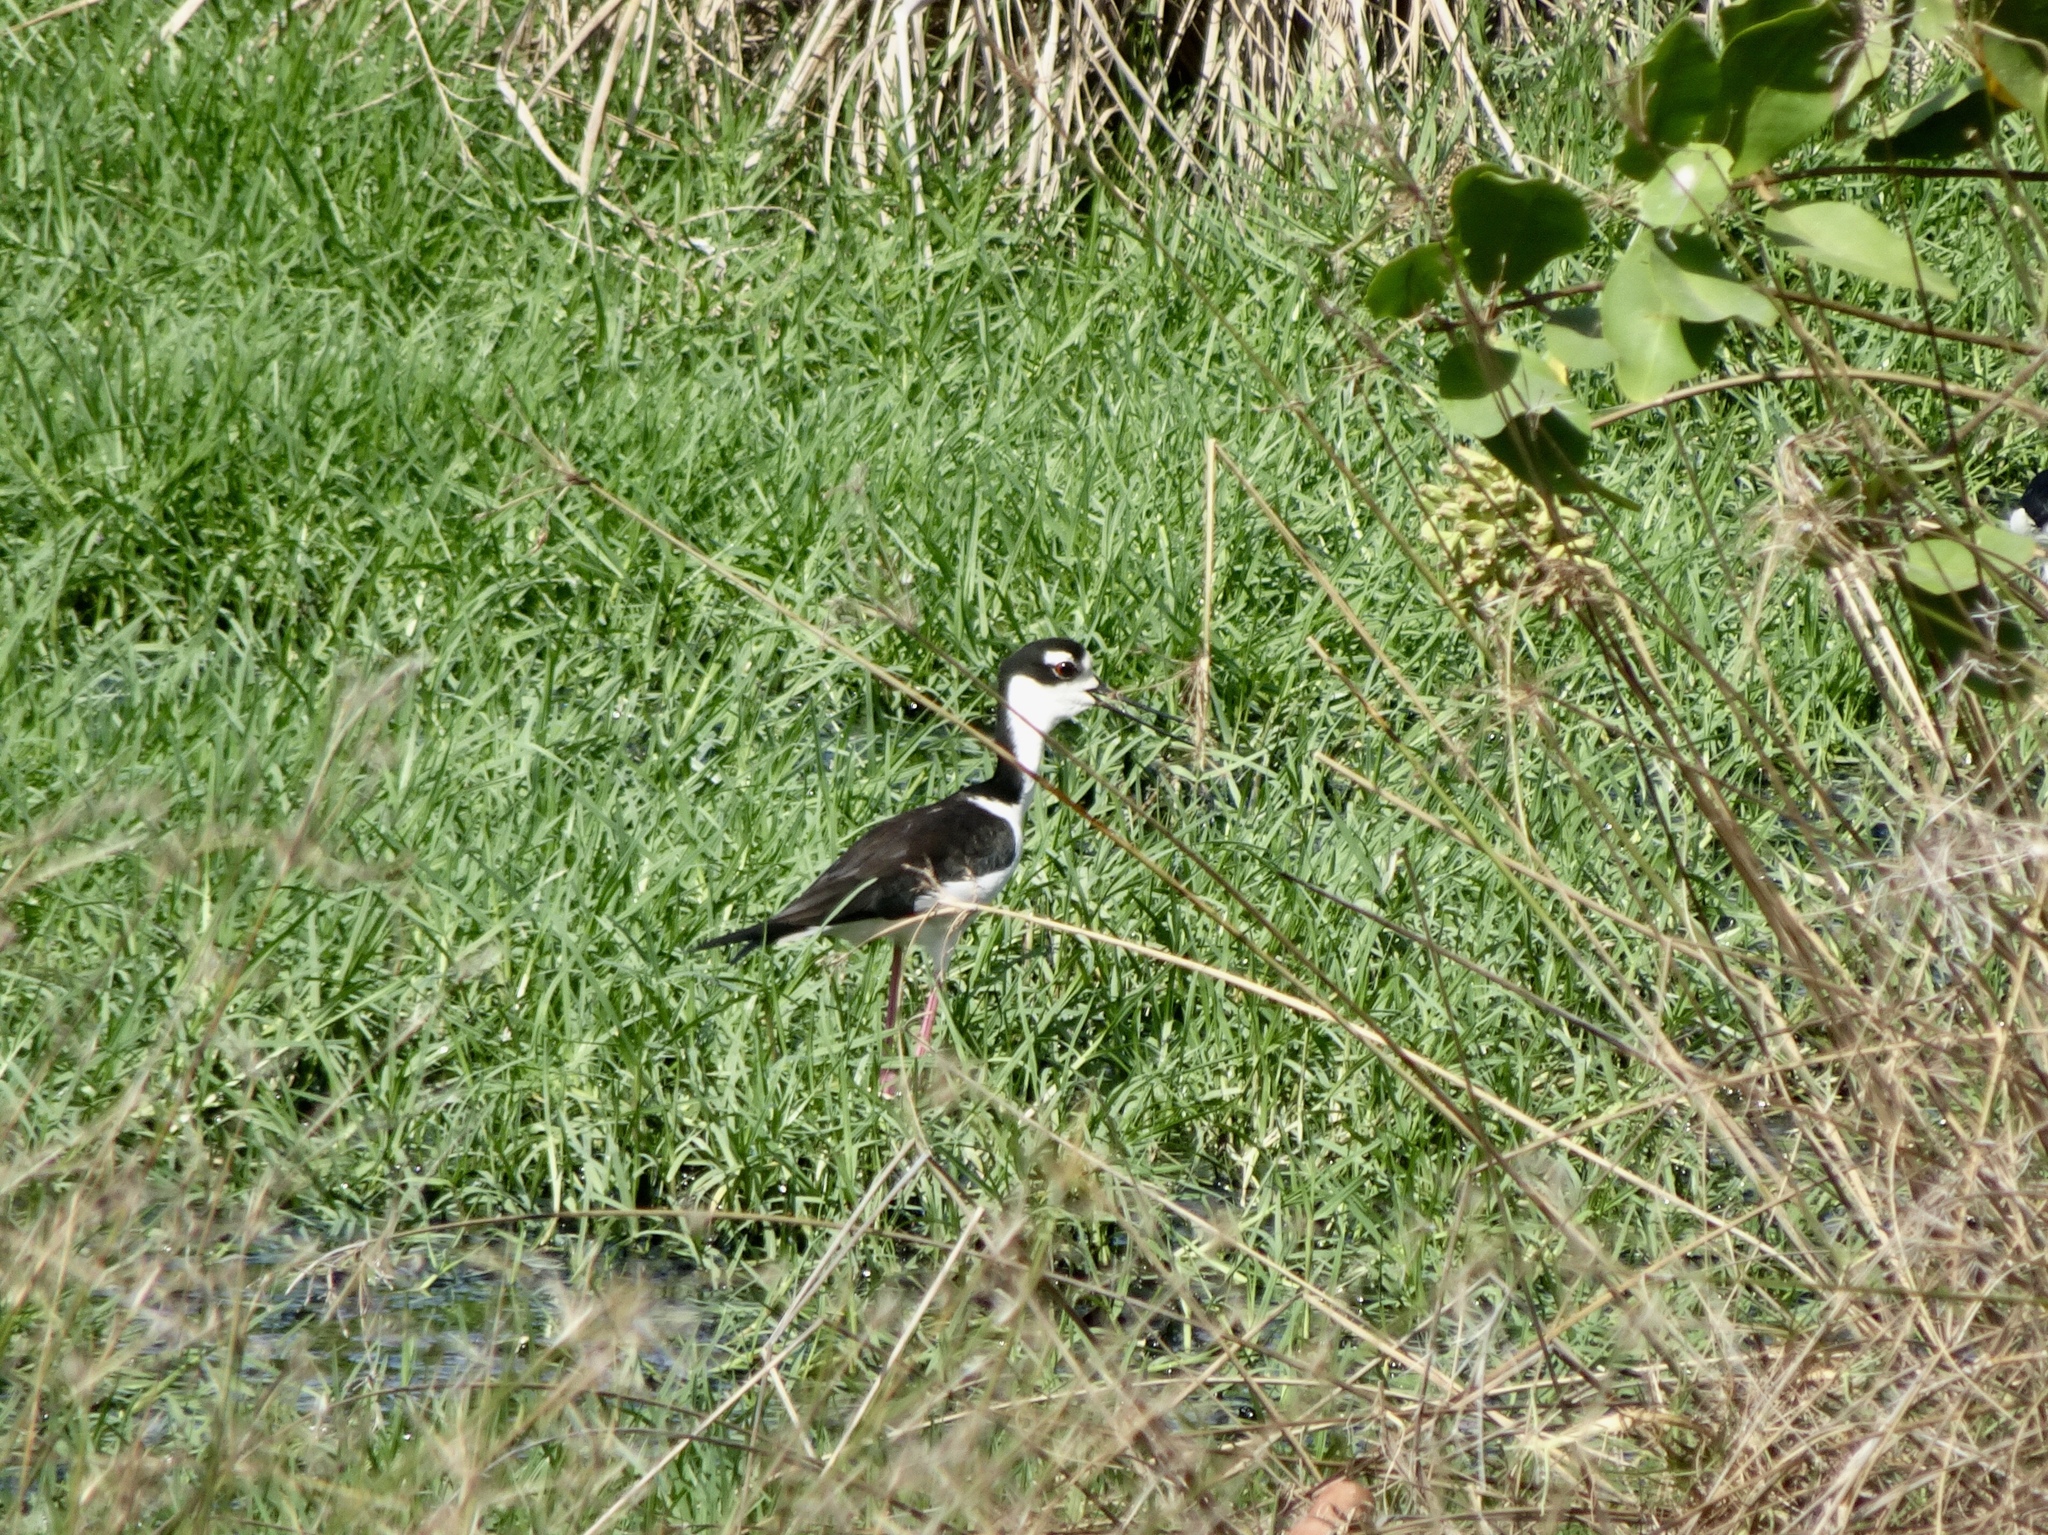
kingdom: Animalia
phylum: Chordata
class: Aves
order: Charadriiformes
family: Recurvirostridae
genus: Himantopus
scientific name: Himantopus mexicanus
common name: Black-necked stilt
